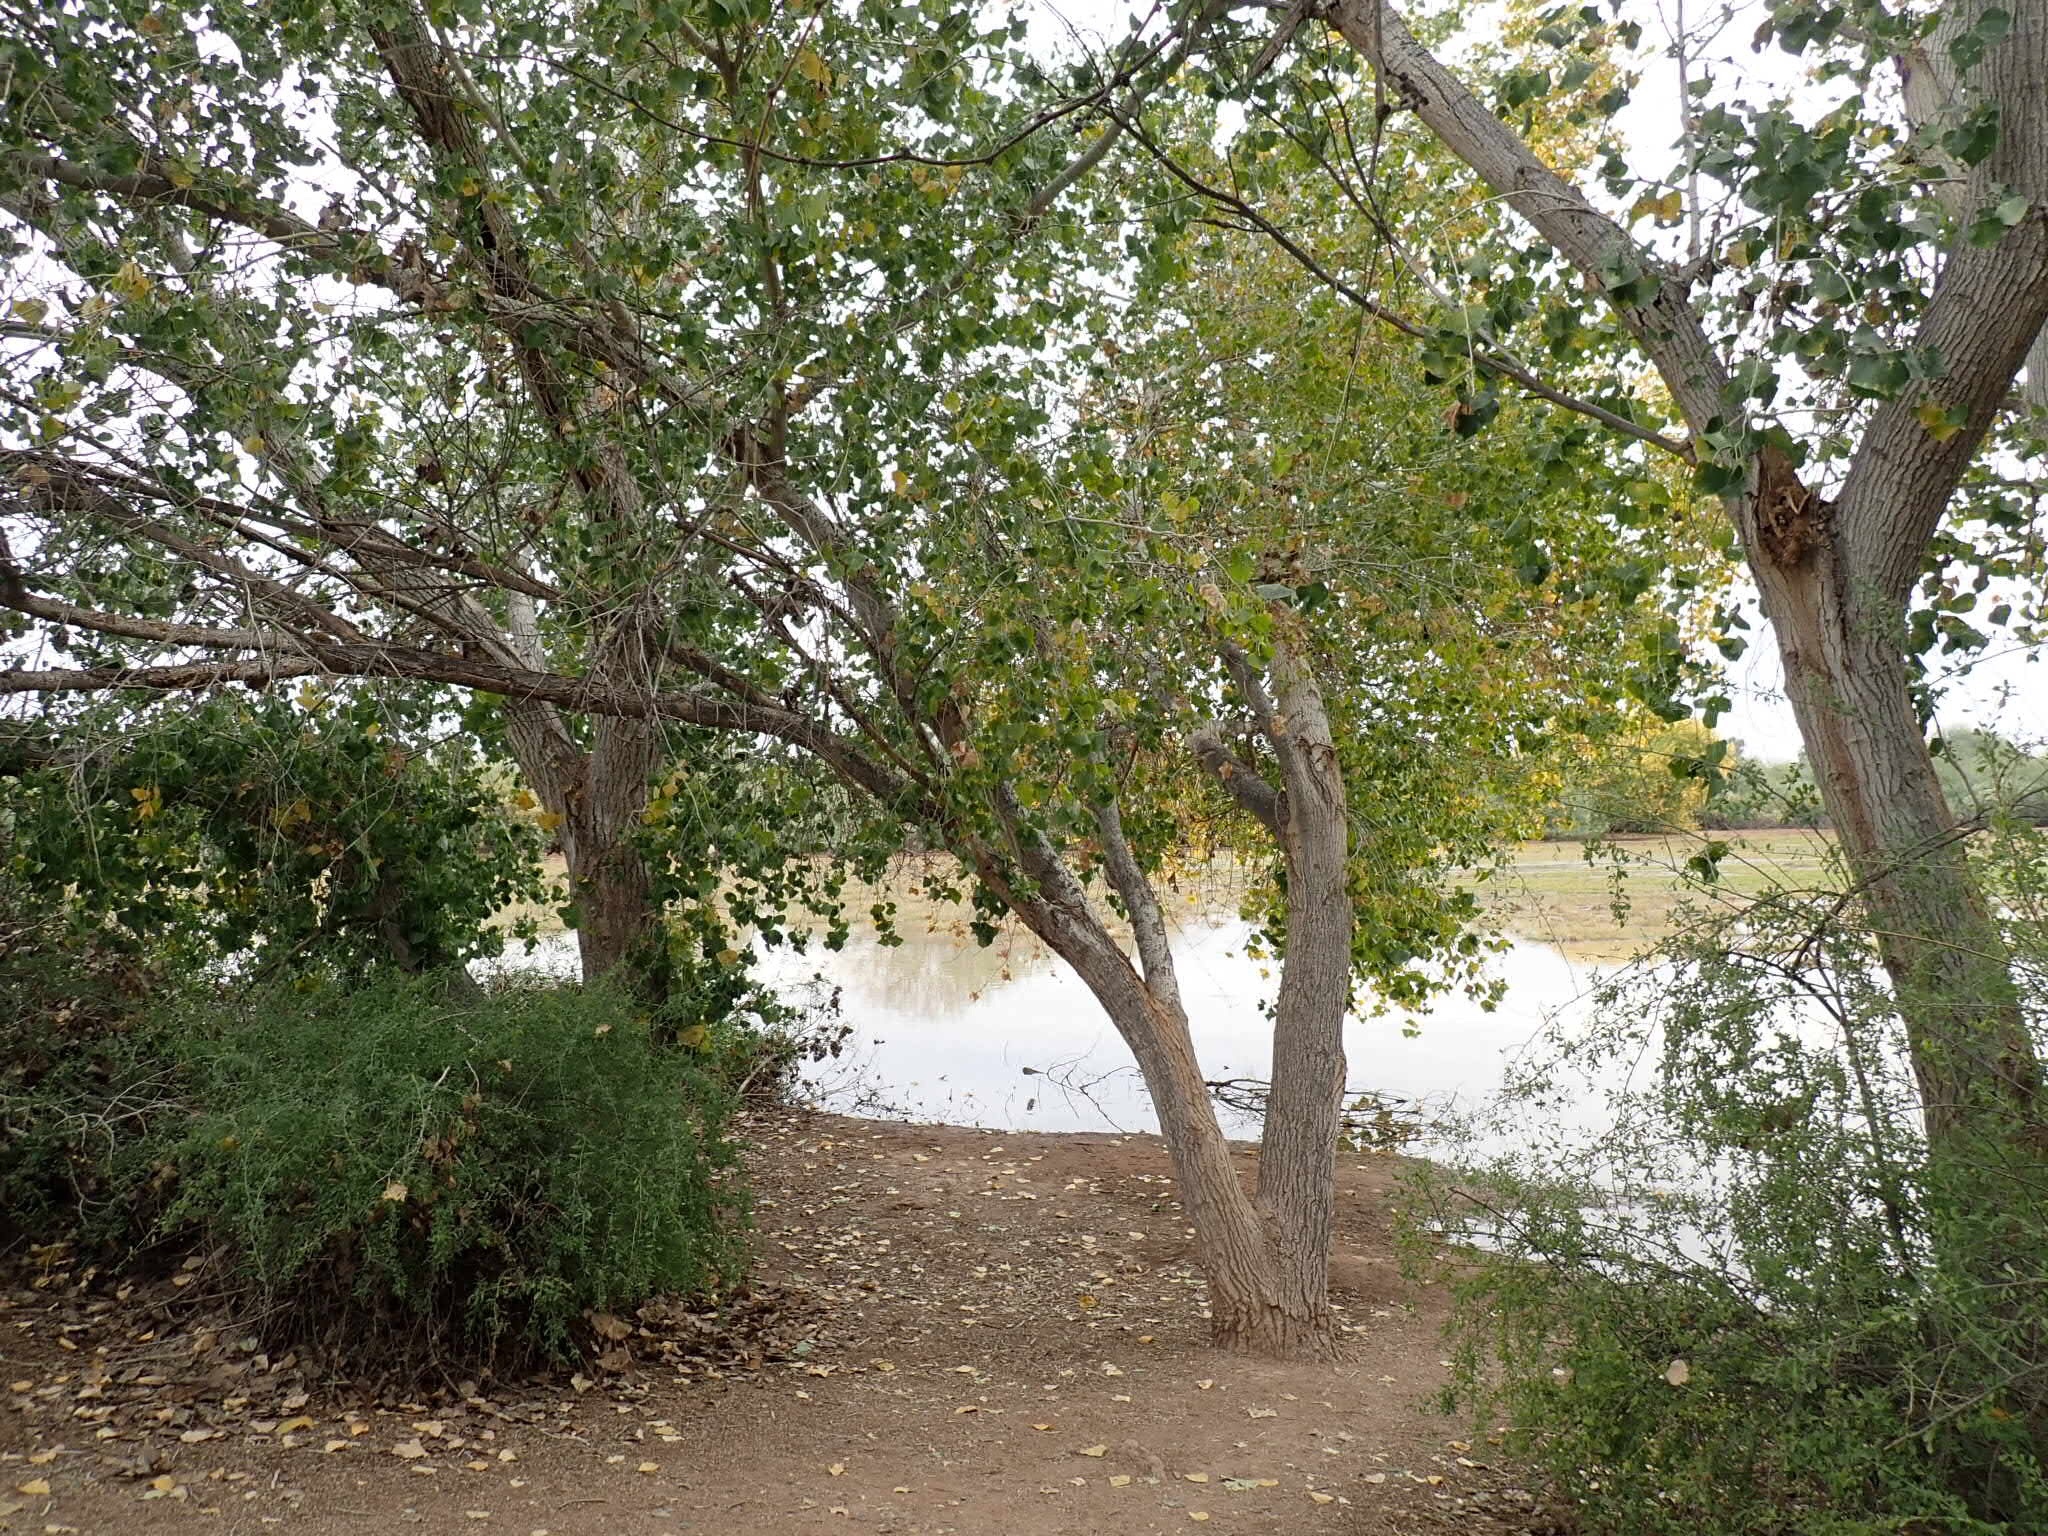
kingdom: Plantae
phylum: Tracheophyta
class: Magnoliopsida
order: Malpighiales
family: Salicaceae
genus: Populus
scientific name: Populus fremontii
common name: Fremont's cottonwood
